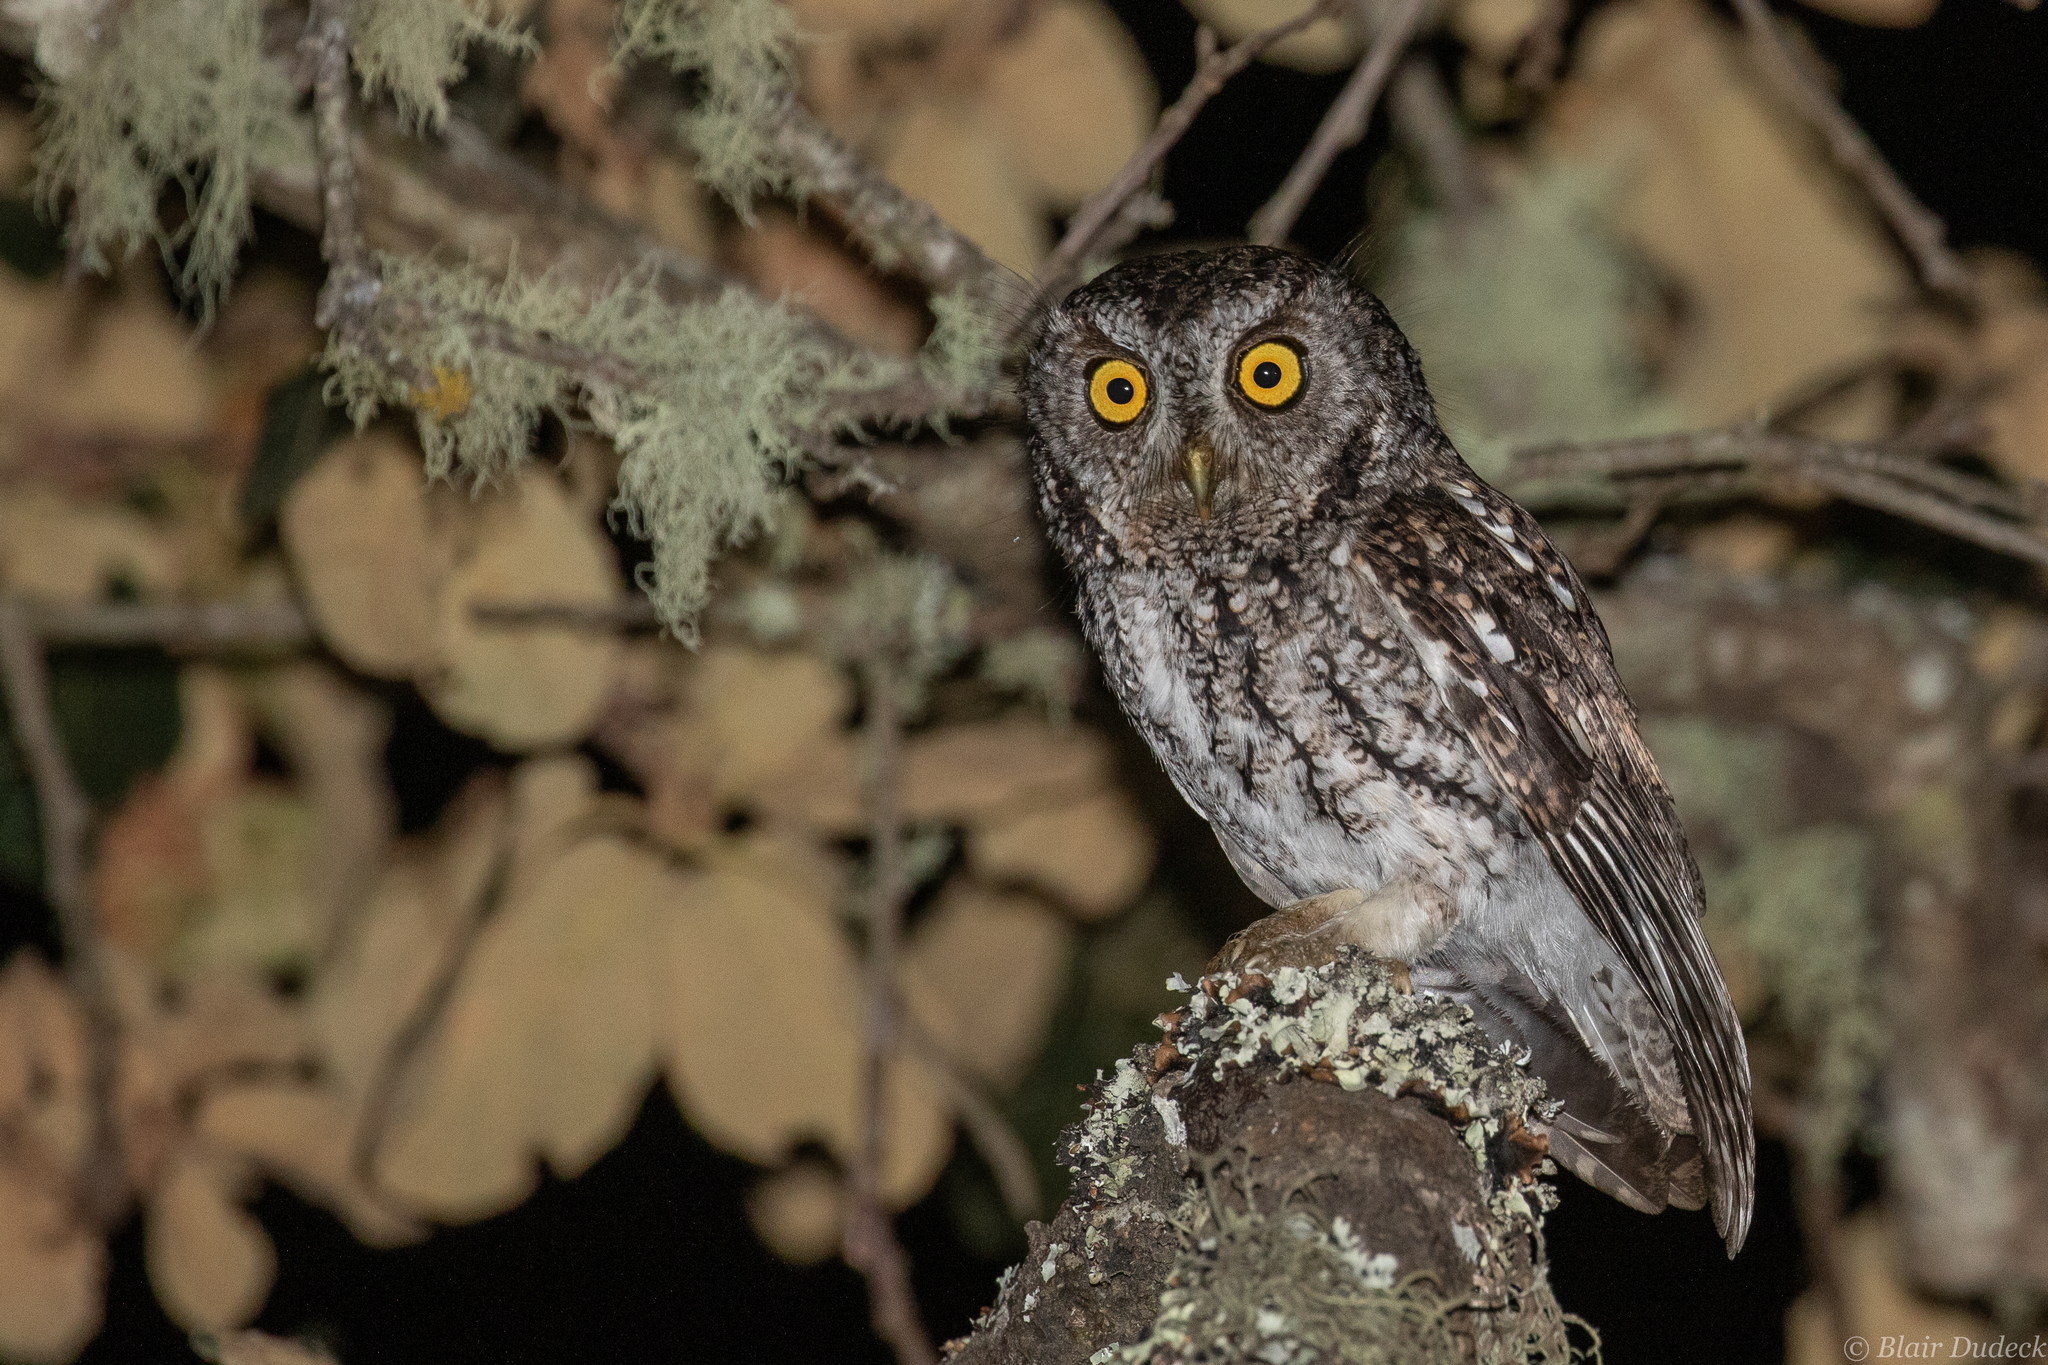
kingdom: Animalia
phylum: Chordata
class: Aves
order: Strigiformes
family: Strigidae
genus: Megascops
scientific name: Megascops trichopsis
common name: Whiskered screech-owl
